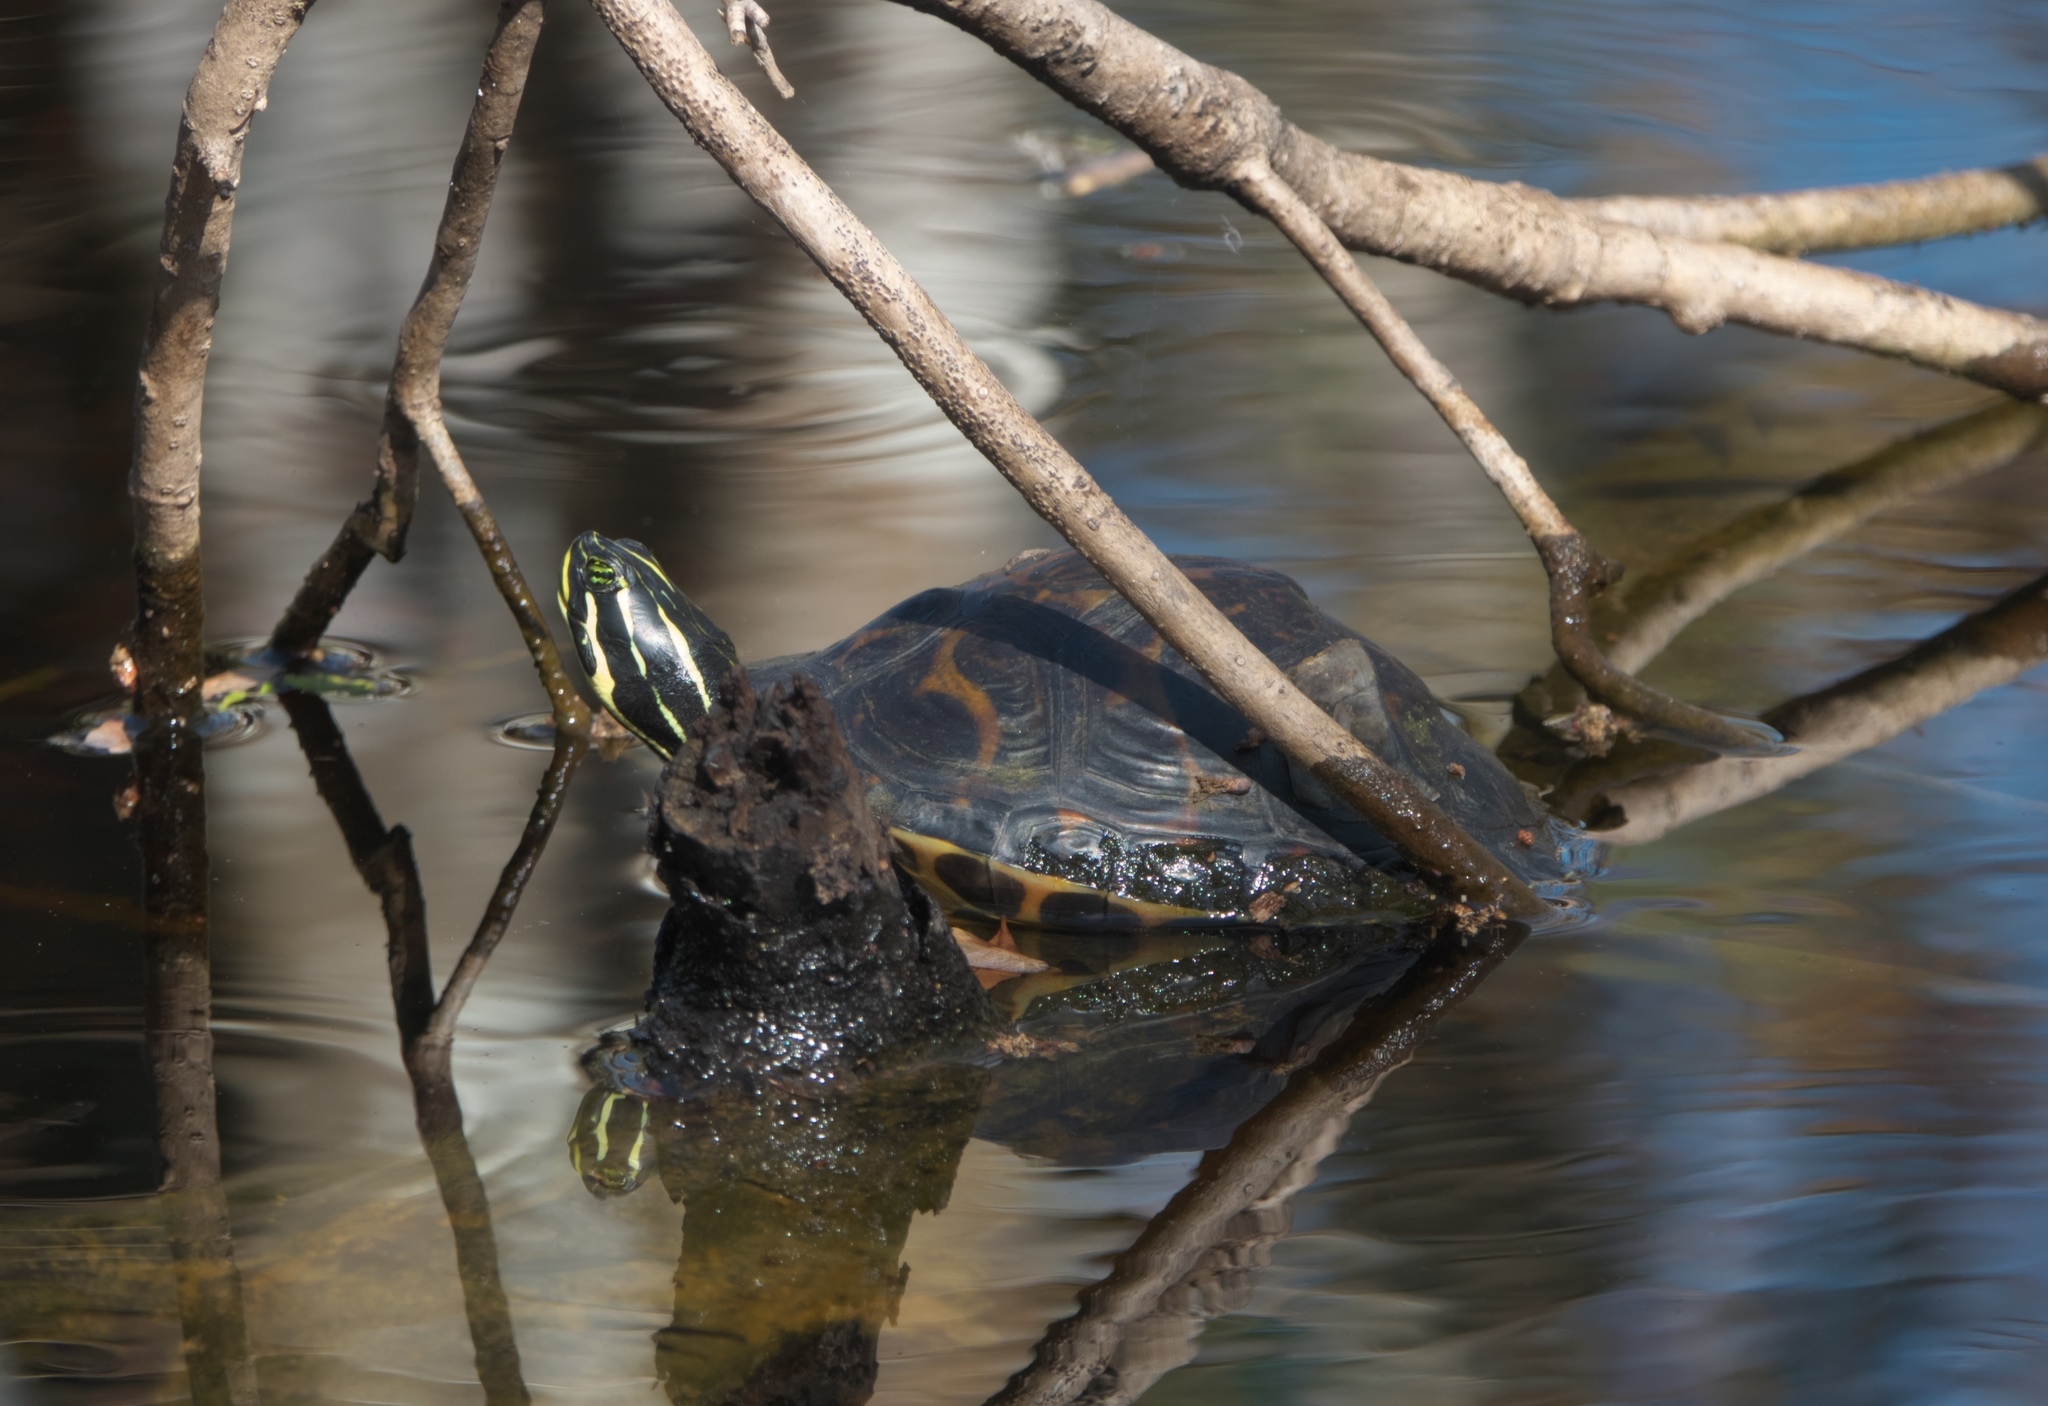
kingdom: Animalia
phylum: Chordata
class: Testudines
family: Emydidae
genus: Pseudemys
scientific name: Pseudemys nelsoni
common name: Florida red-bellied turtle
